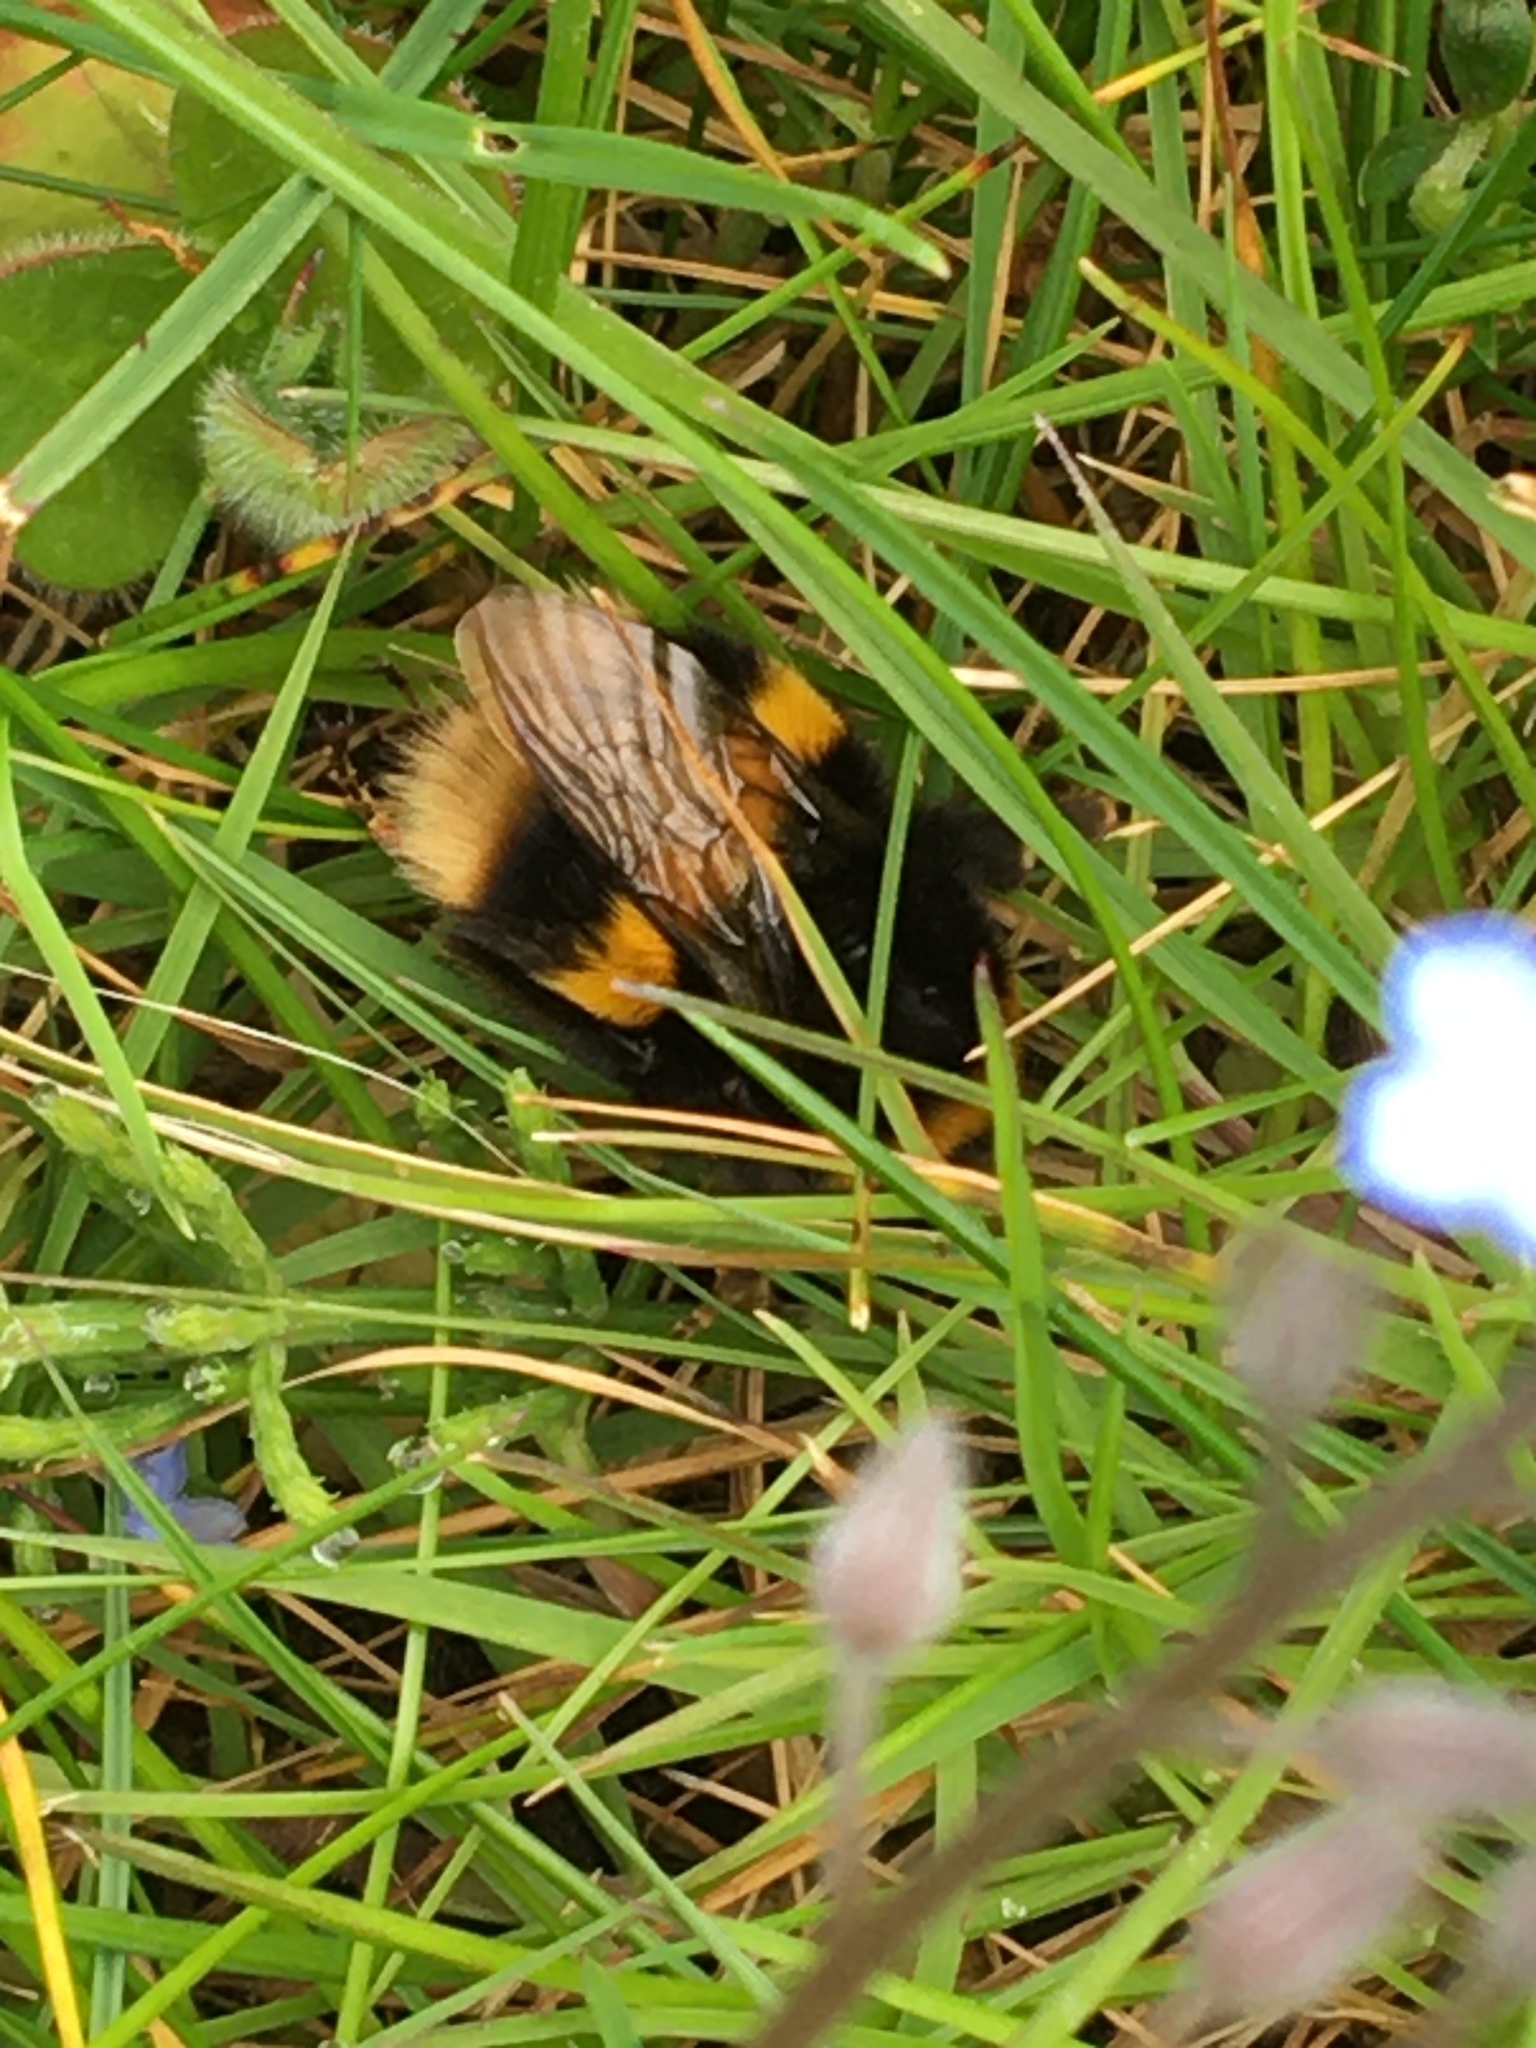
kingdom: Animalia
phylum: Arthropoda
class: Insecta
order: Hymenoptera
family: Apidae
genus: Bombus
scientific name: Bombus terrestris
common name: Buff-tailed bumblebee
